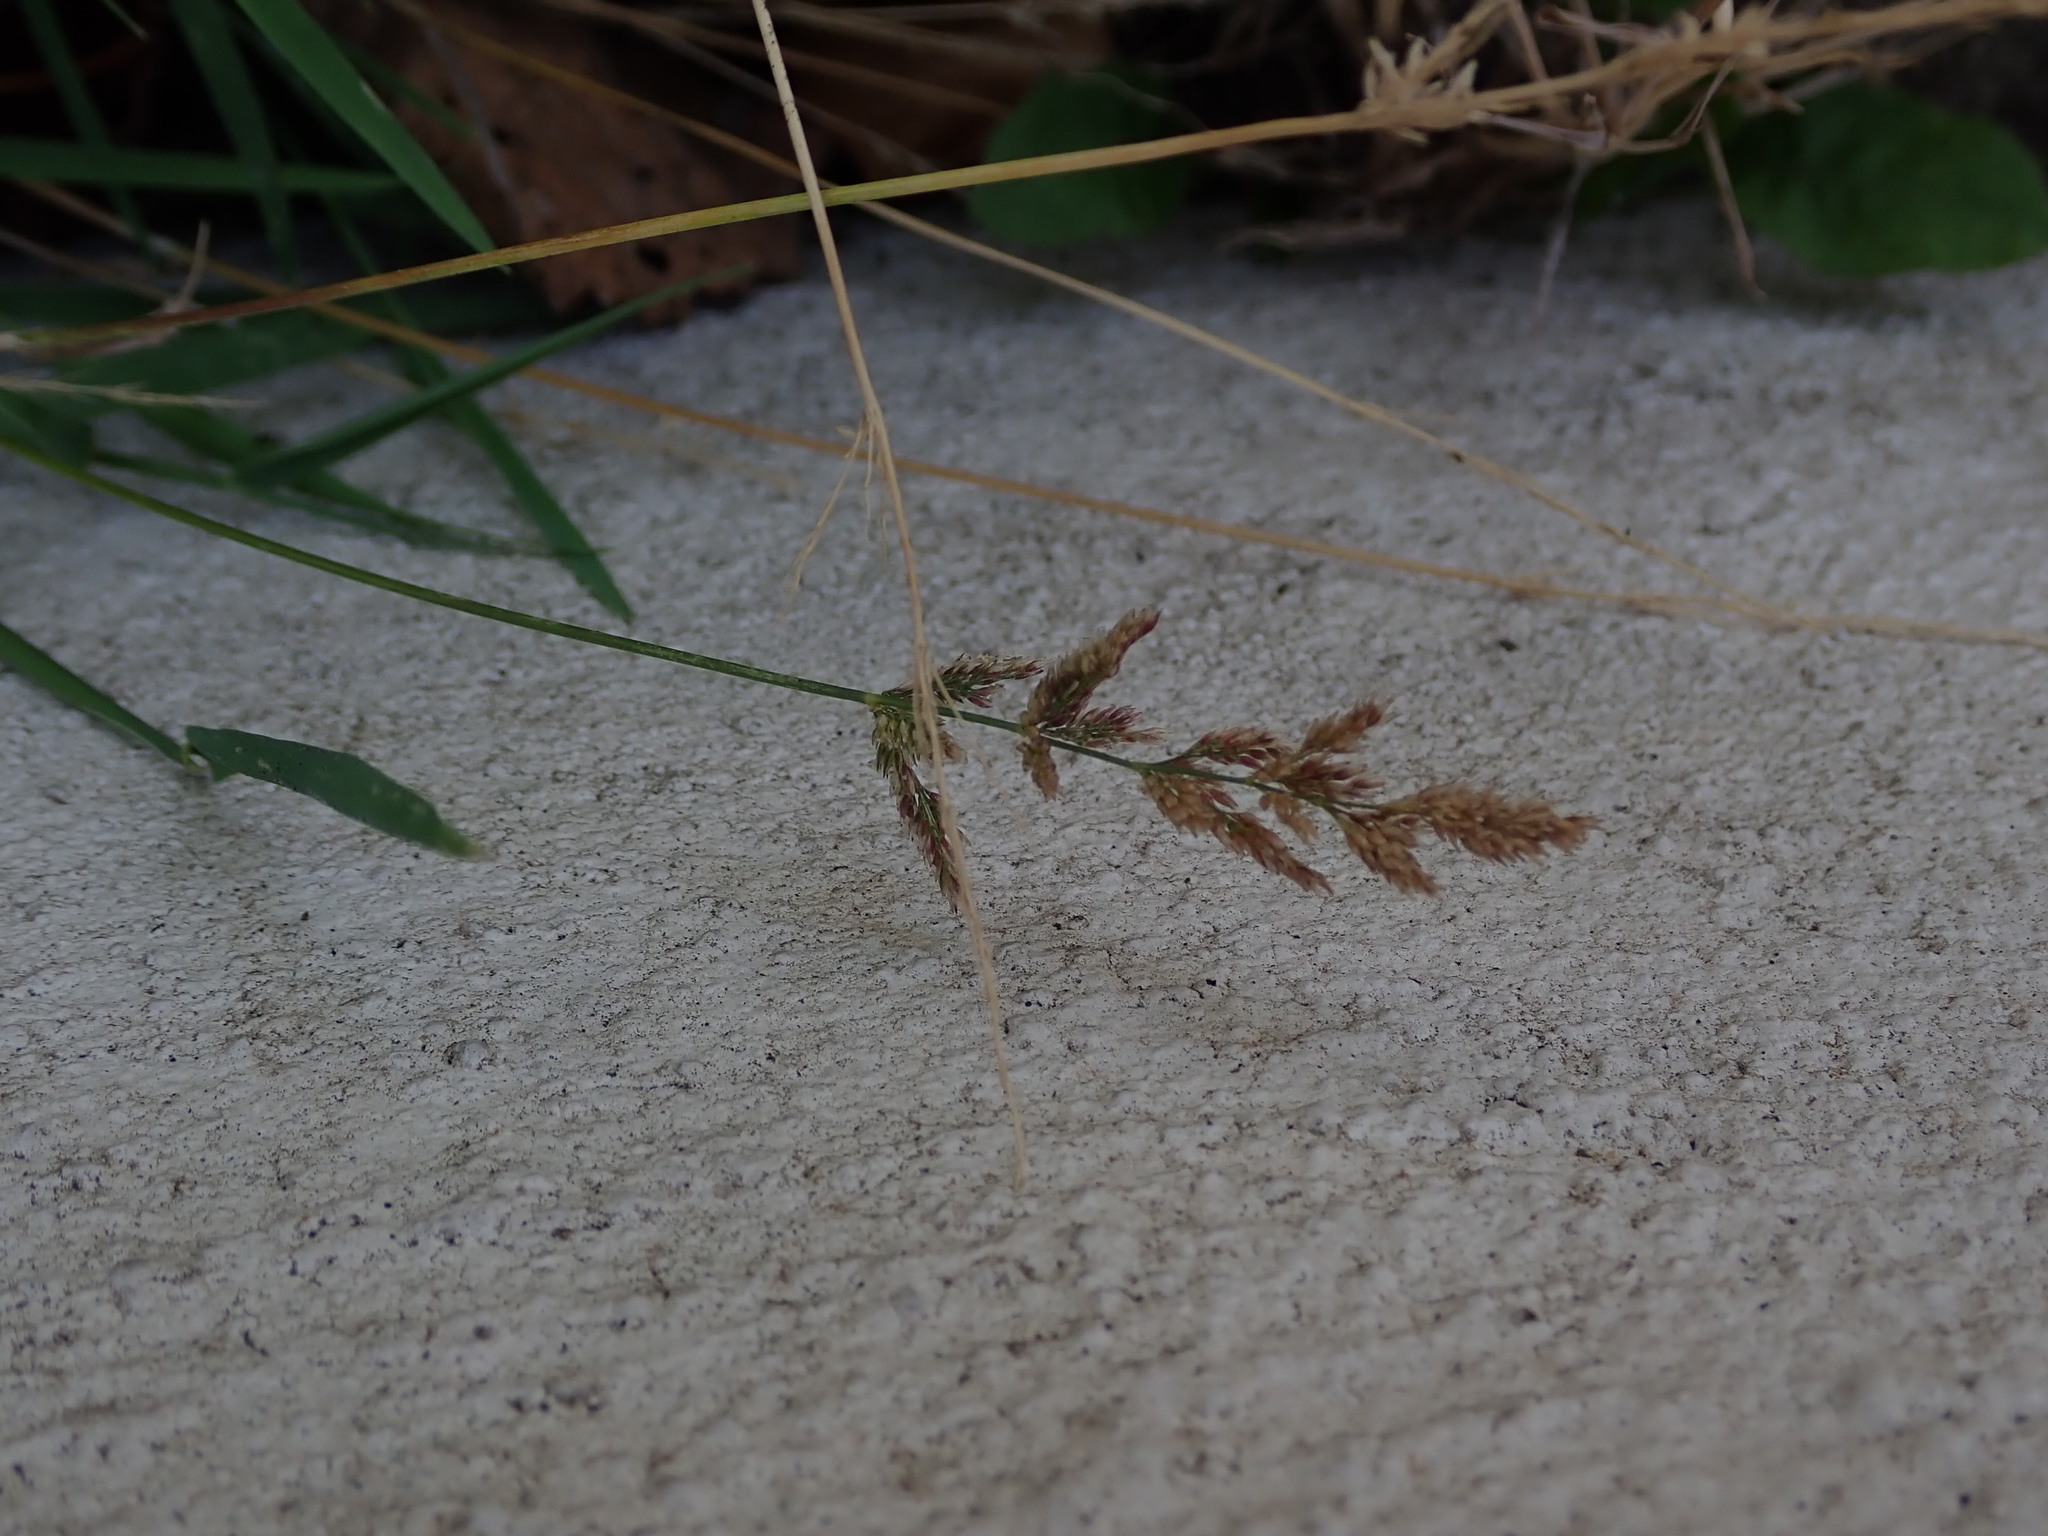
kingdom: Plantae
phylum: Tracheophyta
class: Liliopsida
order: Poales
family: Poaceae
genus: Polypogon
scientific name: Polypogon viridis
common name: Water bent
